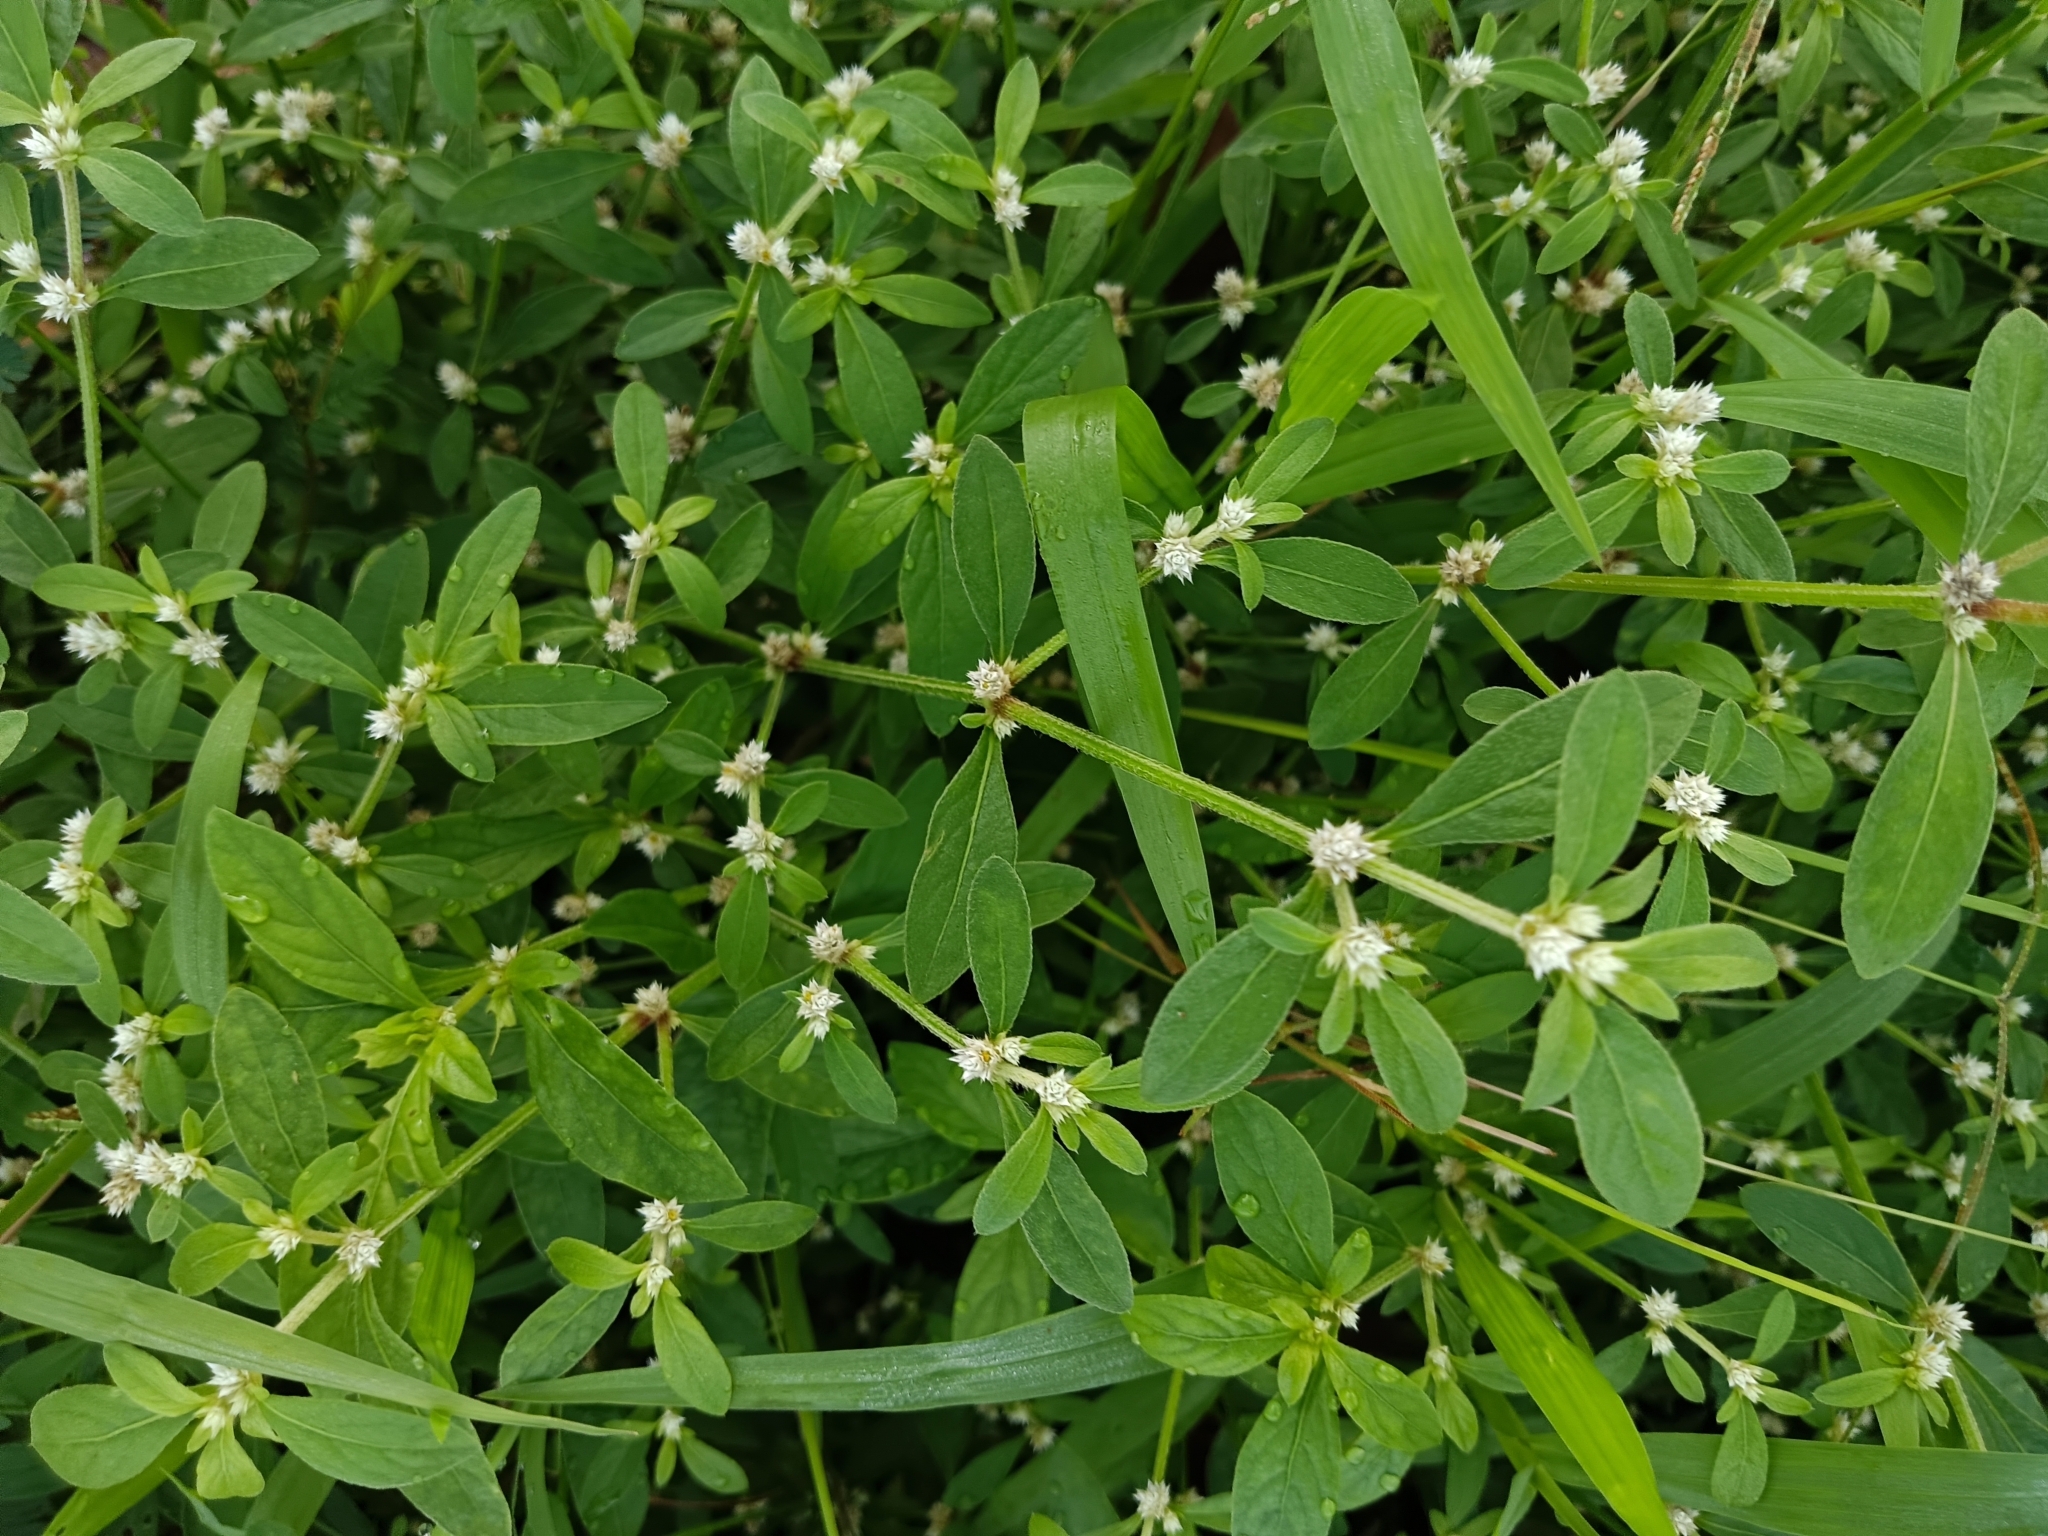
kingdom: Plantae
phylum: Tracheophyta
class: Magnoliopsida
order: Caryophyllales
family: Amaranthaceae
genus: Alternanthera
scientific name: Alternanthera ficoidea
